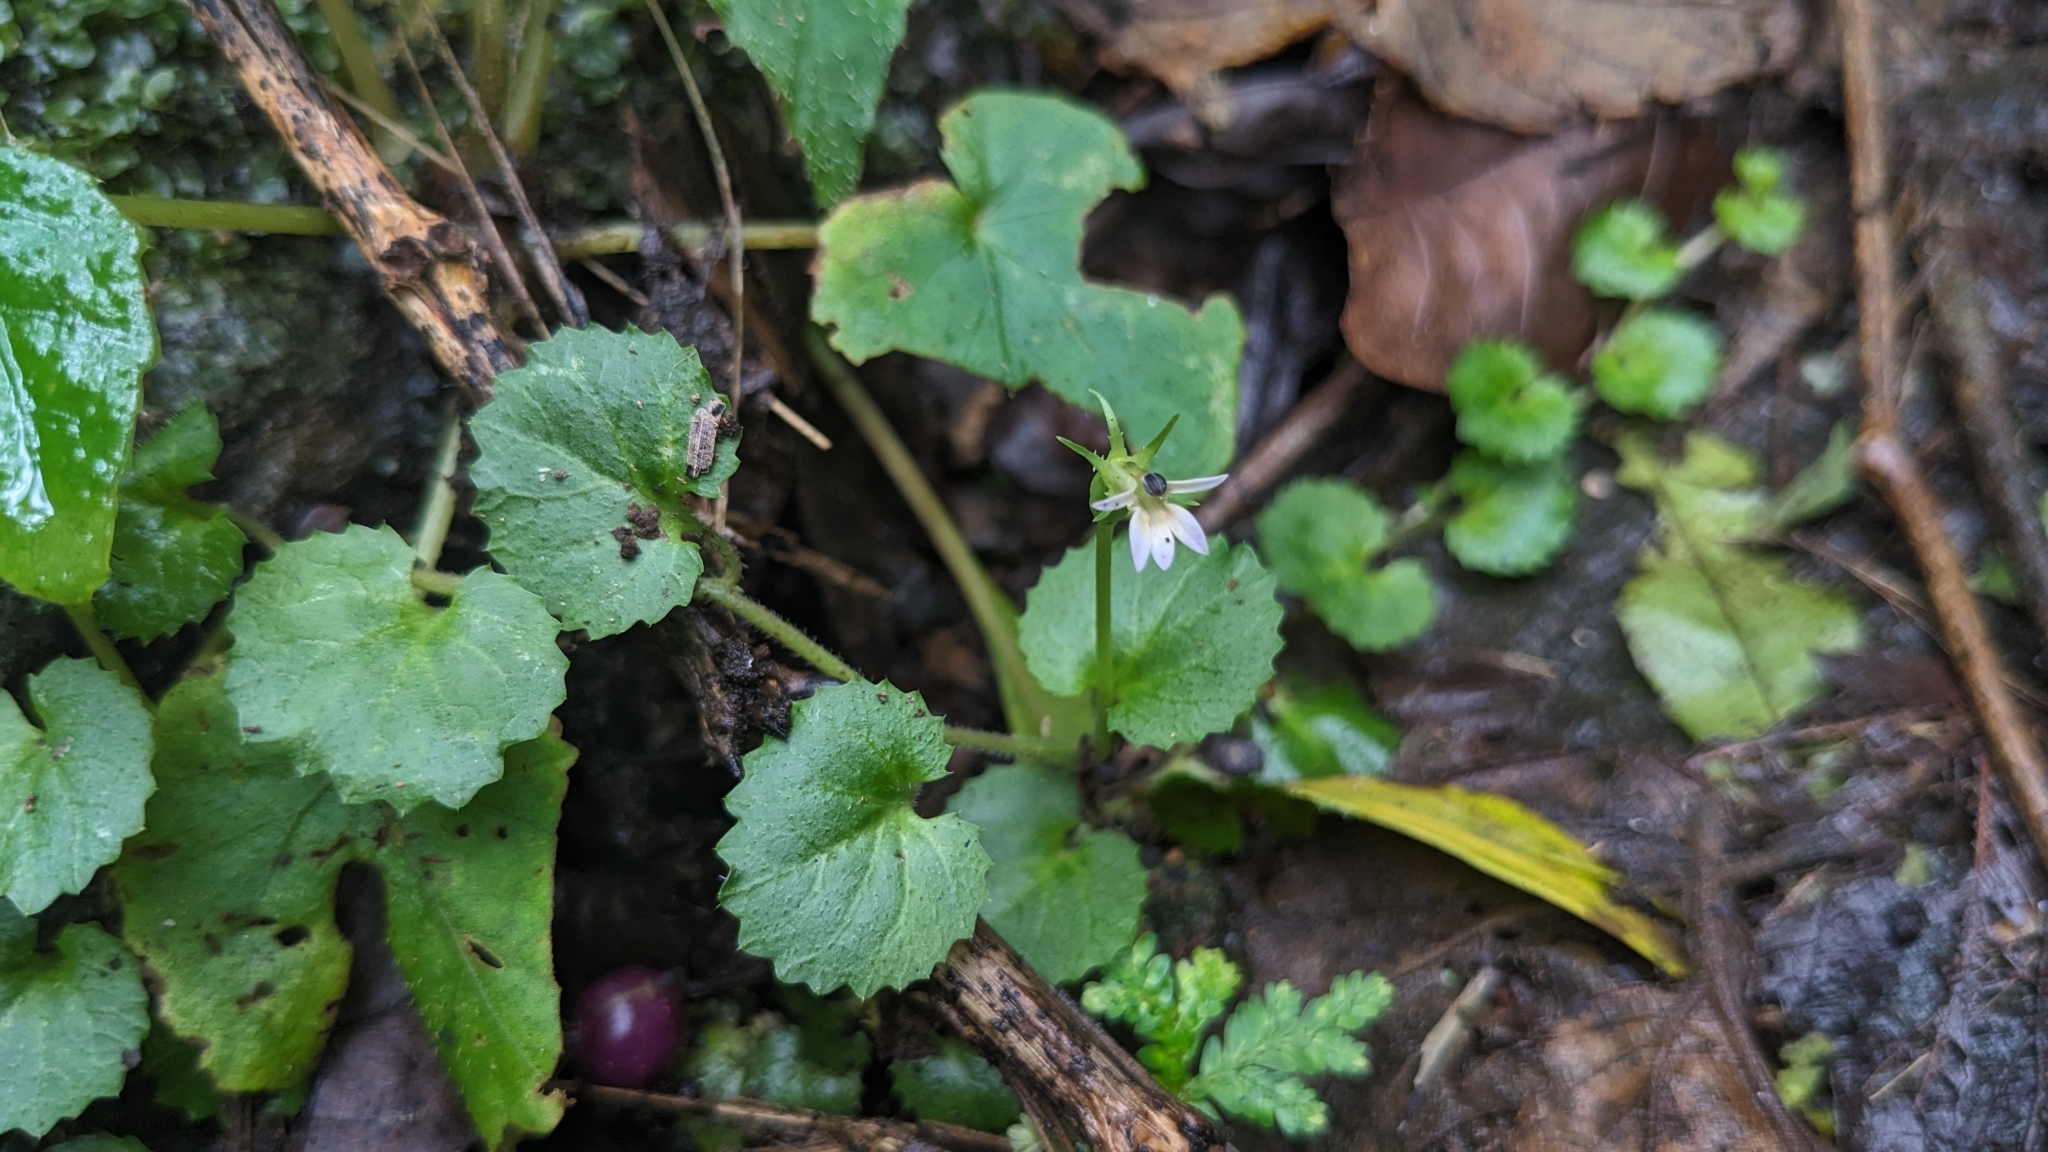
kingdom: Plantae
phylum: Tracheophyta
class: Magnoliopsida
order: Asterales
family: Campanulaceae
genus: Lobelia
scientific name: Lobelia nummularia
